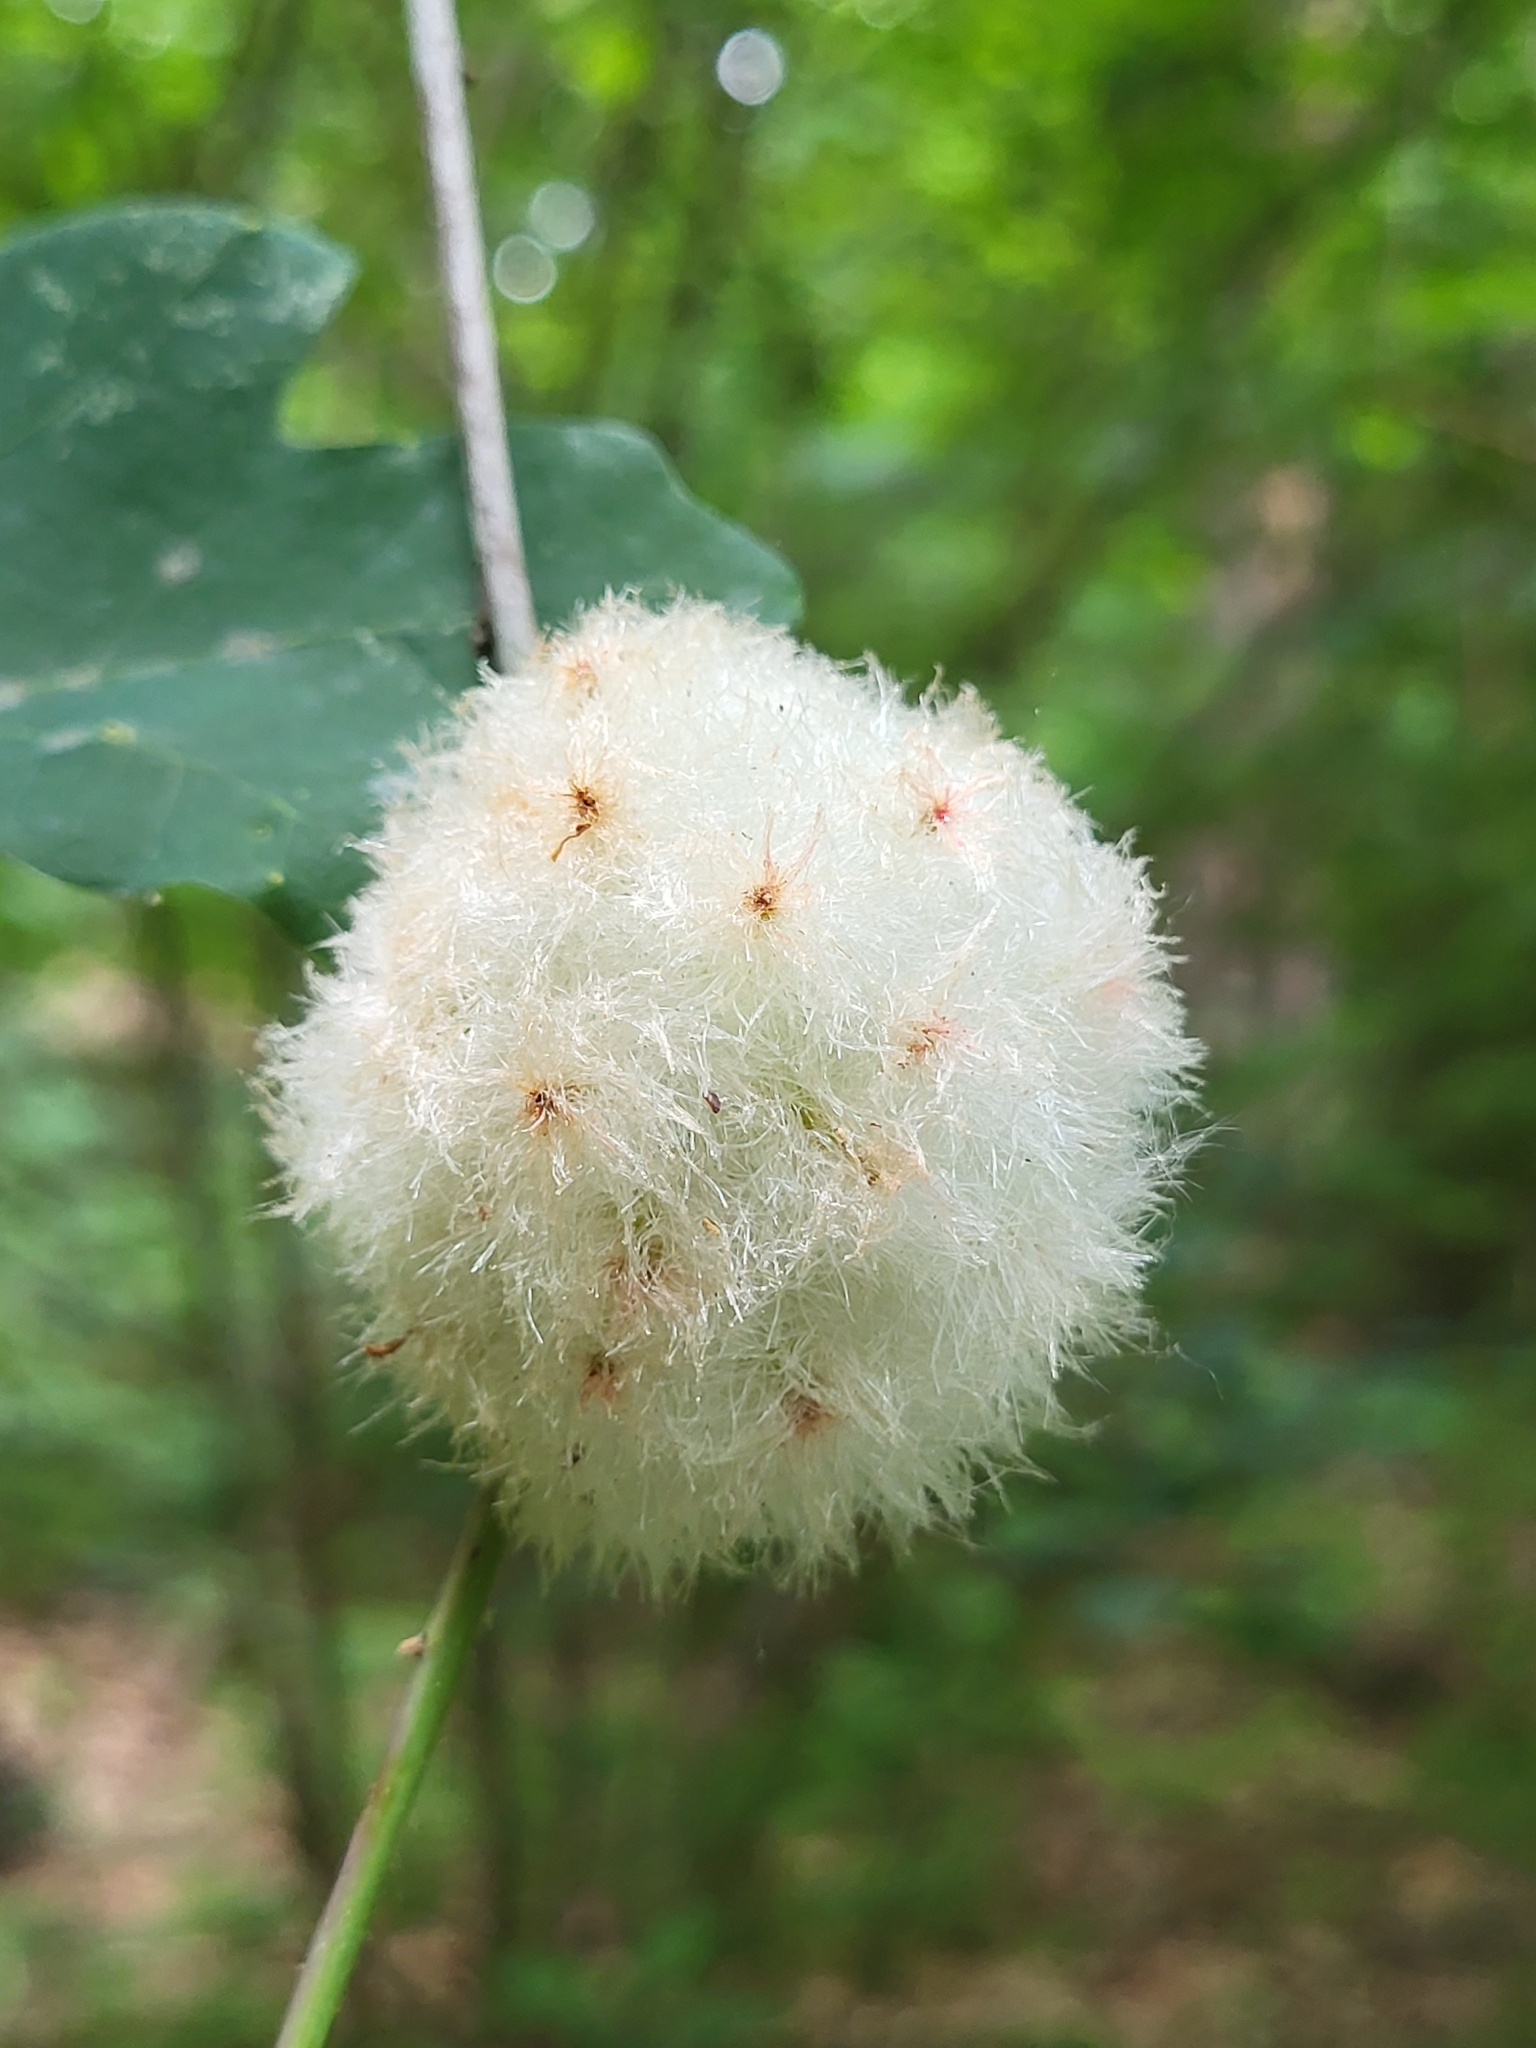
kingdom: Animalia
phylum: Arthropoda
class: Insecta
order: Hymenoptera
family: Cynipidae
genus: Callirhytis
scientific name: Callirhytis
